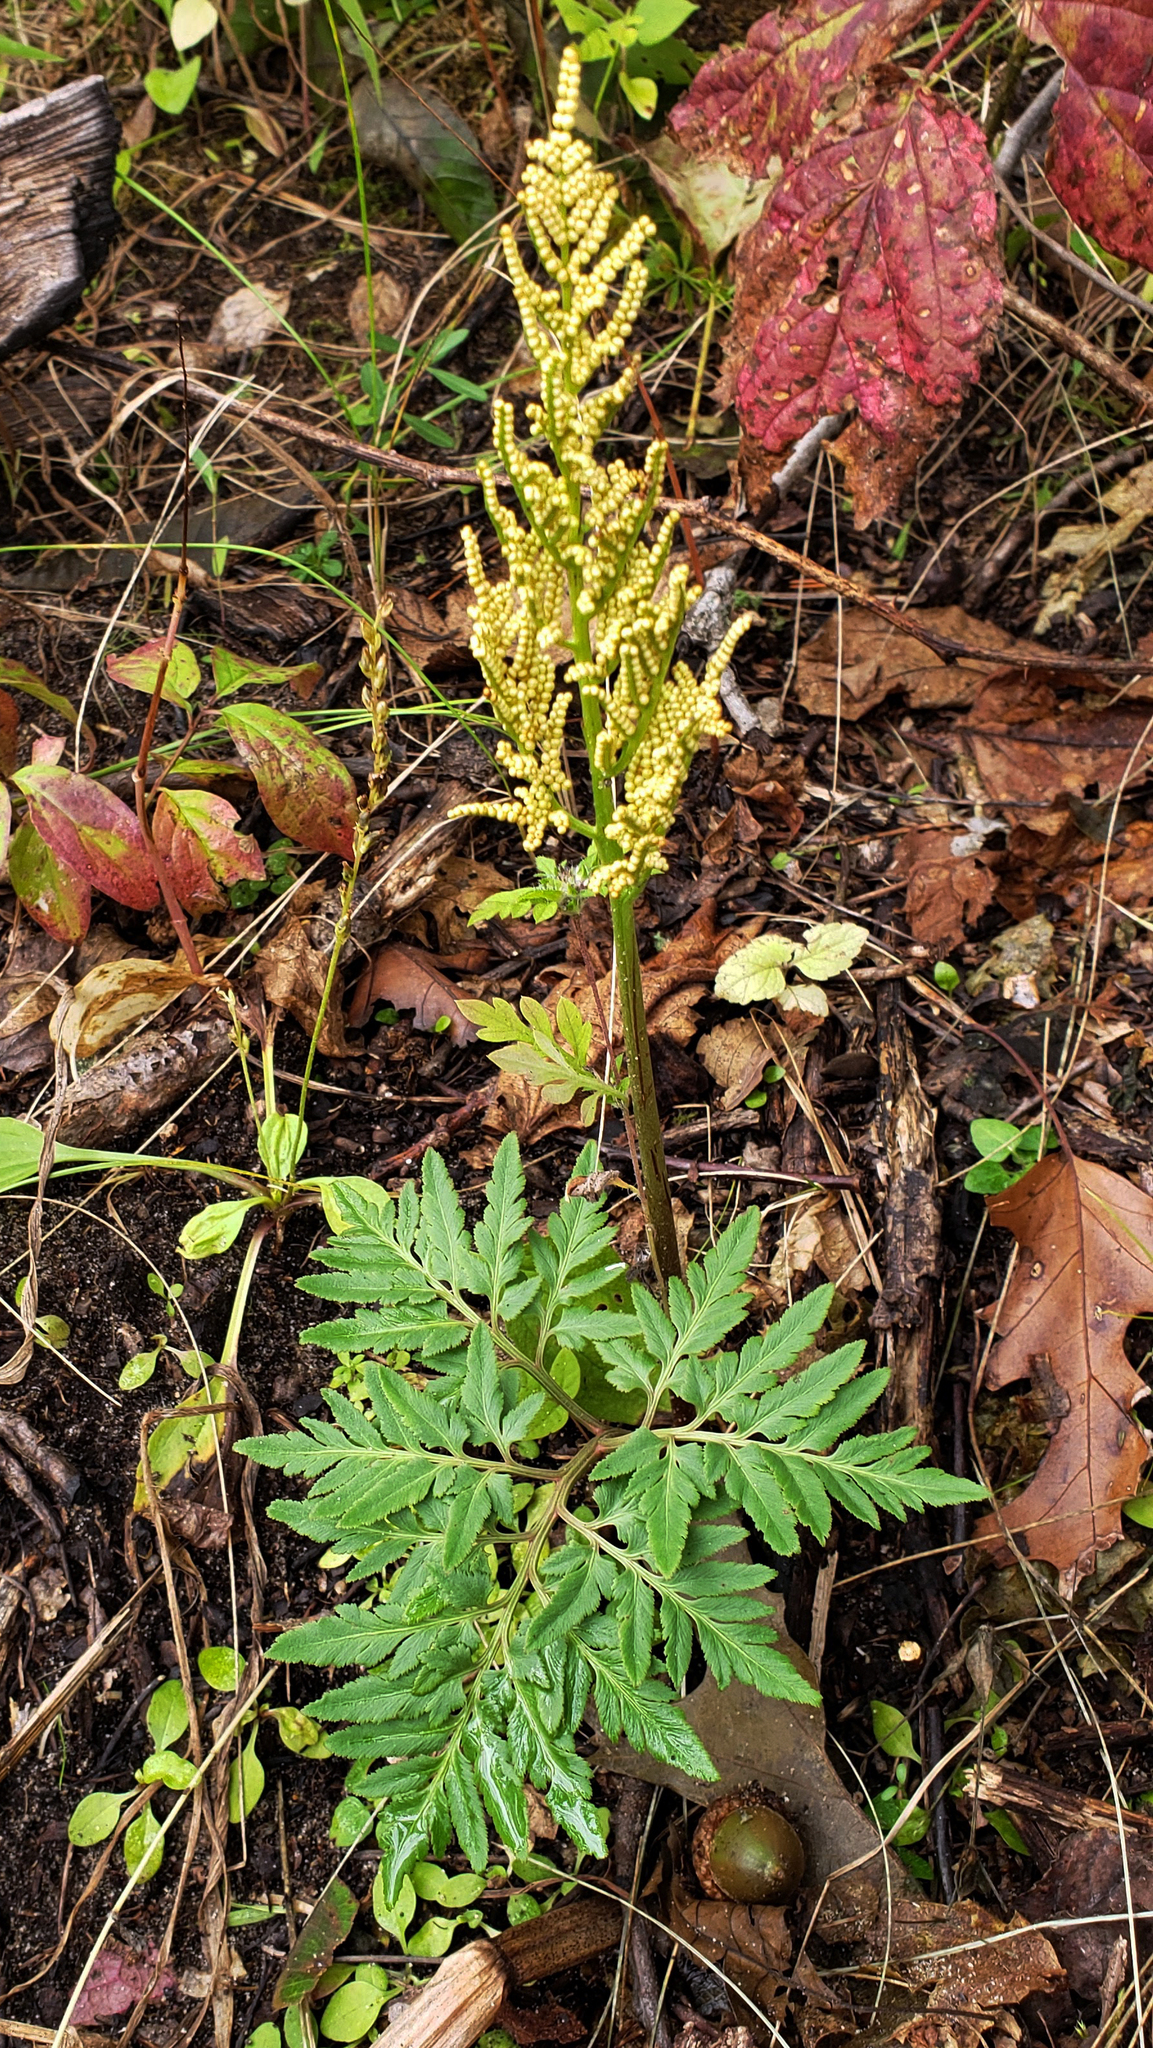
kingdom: Plantae
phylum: Tracheophyta
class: Polypodiopsida
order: Ophioglossales
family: Ophioglossaceae
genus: Sceptridium
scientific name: Sceptridium dissectum
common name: Cut-leaved grapefern
